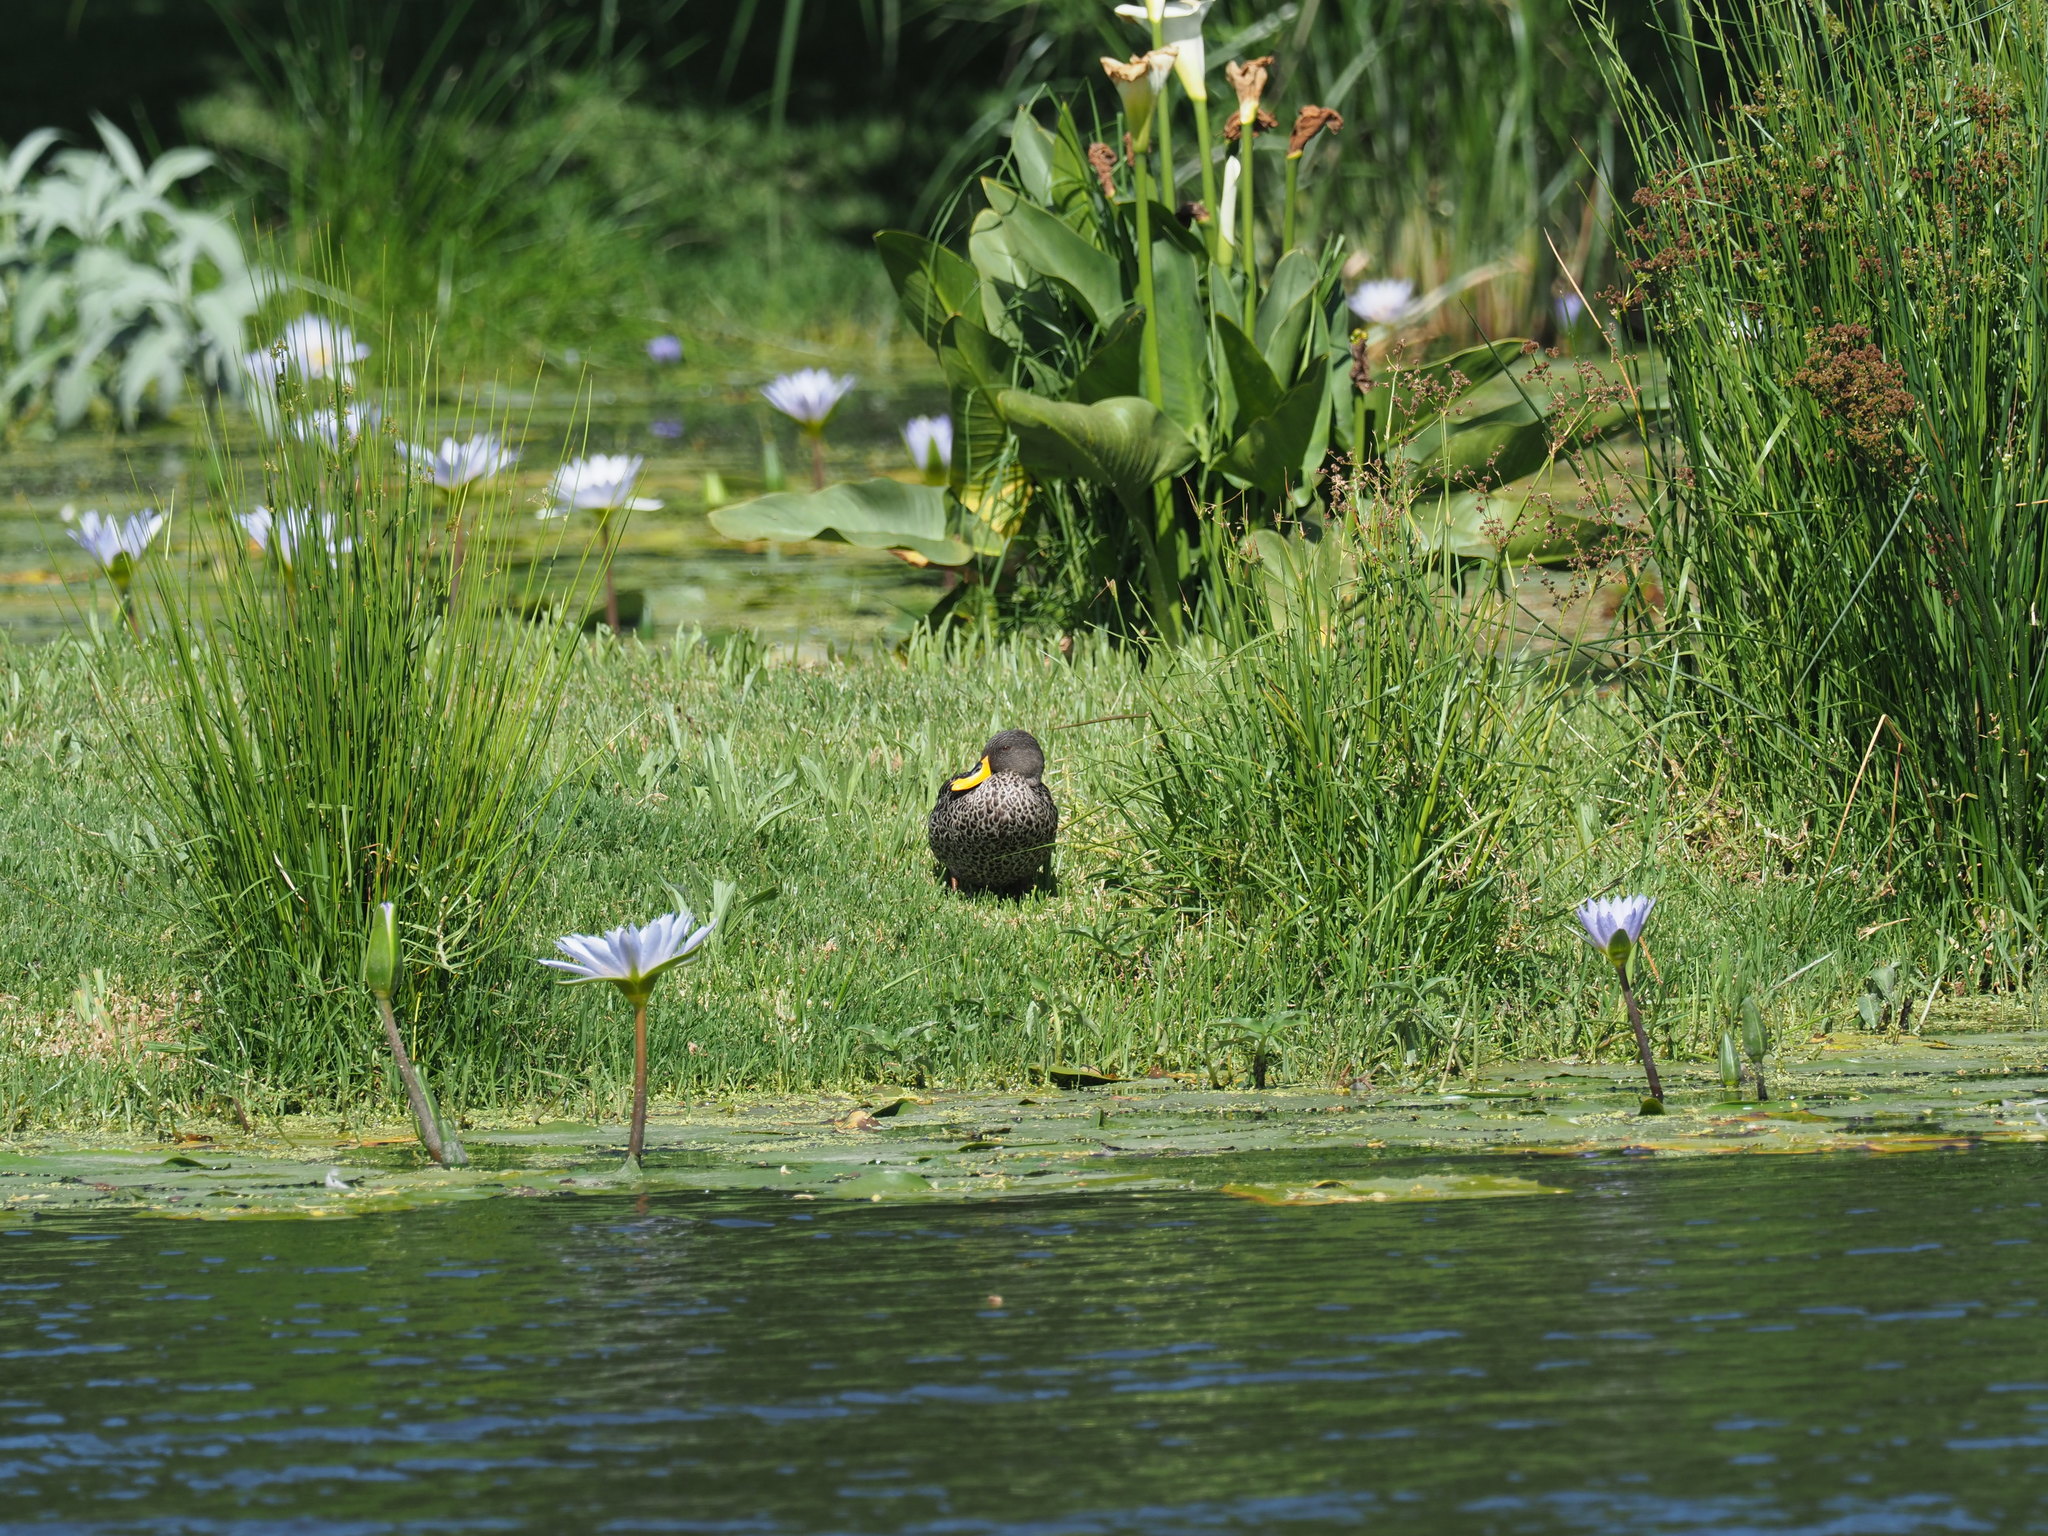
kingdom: Animalia
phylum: Chordata
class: Aves
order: Anseriformes
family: Anatidae
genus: Anas
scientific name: Anas undulata
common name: Yellow-billed duck
